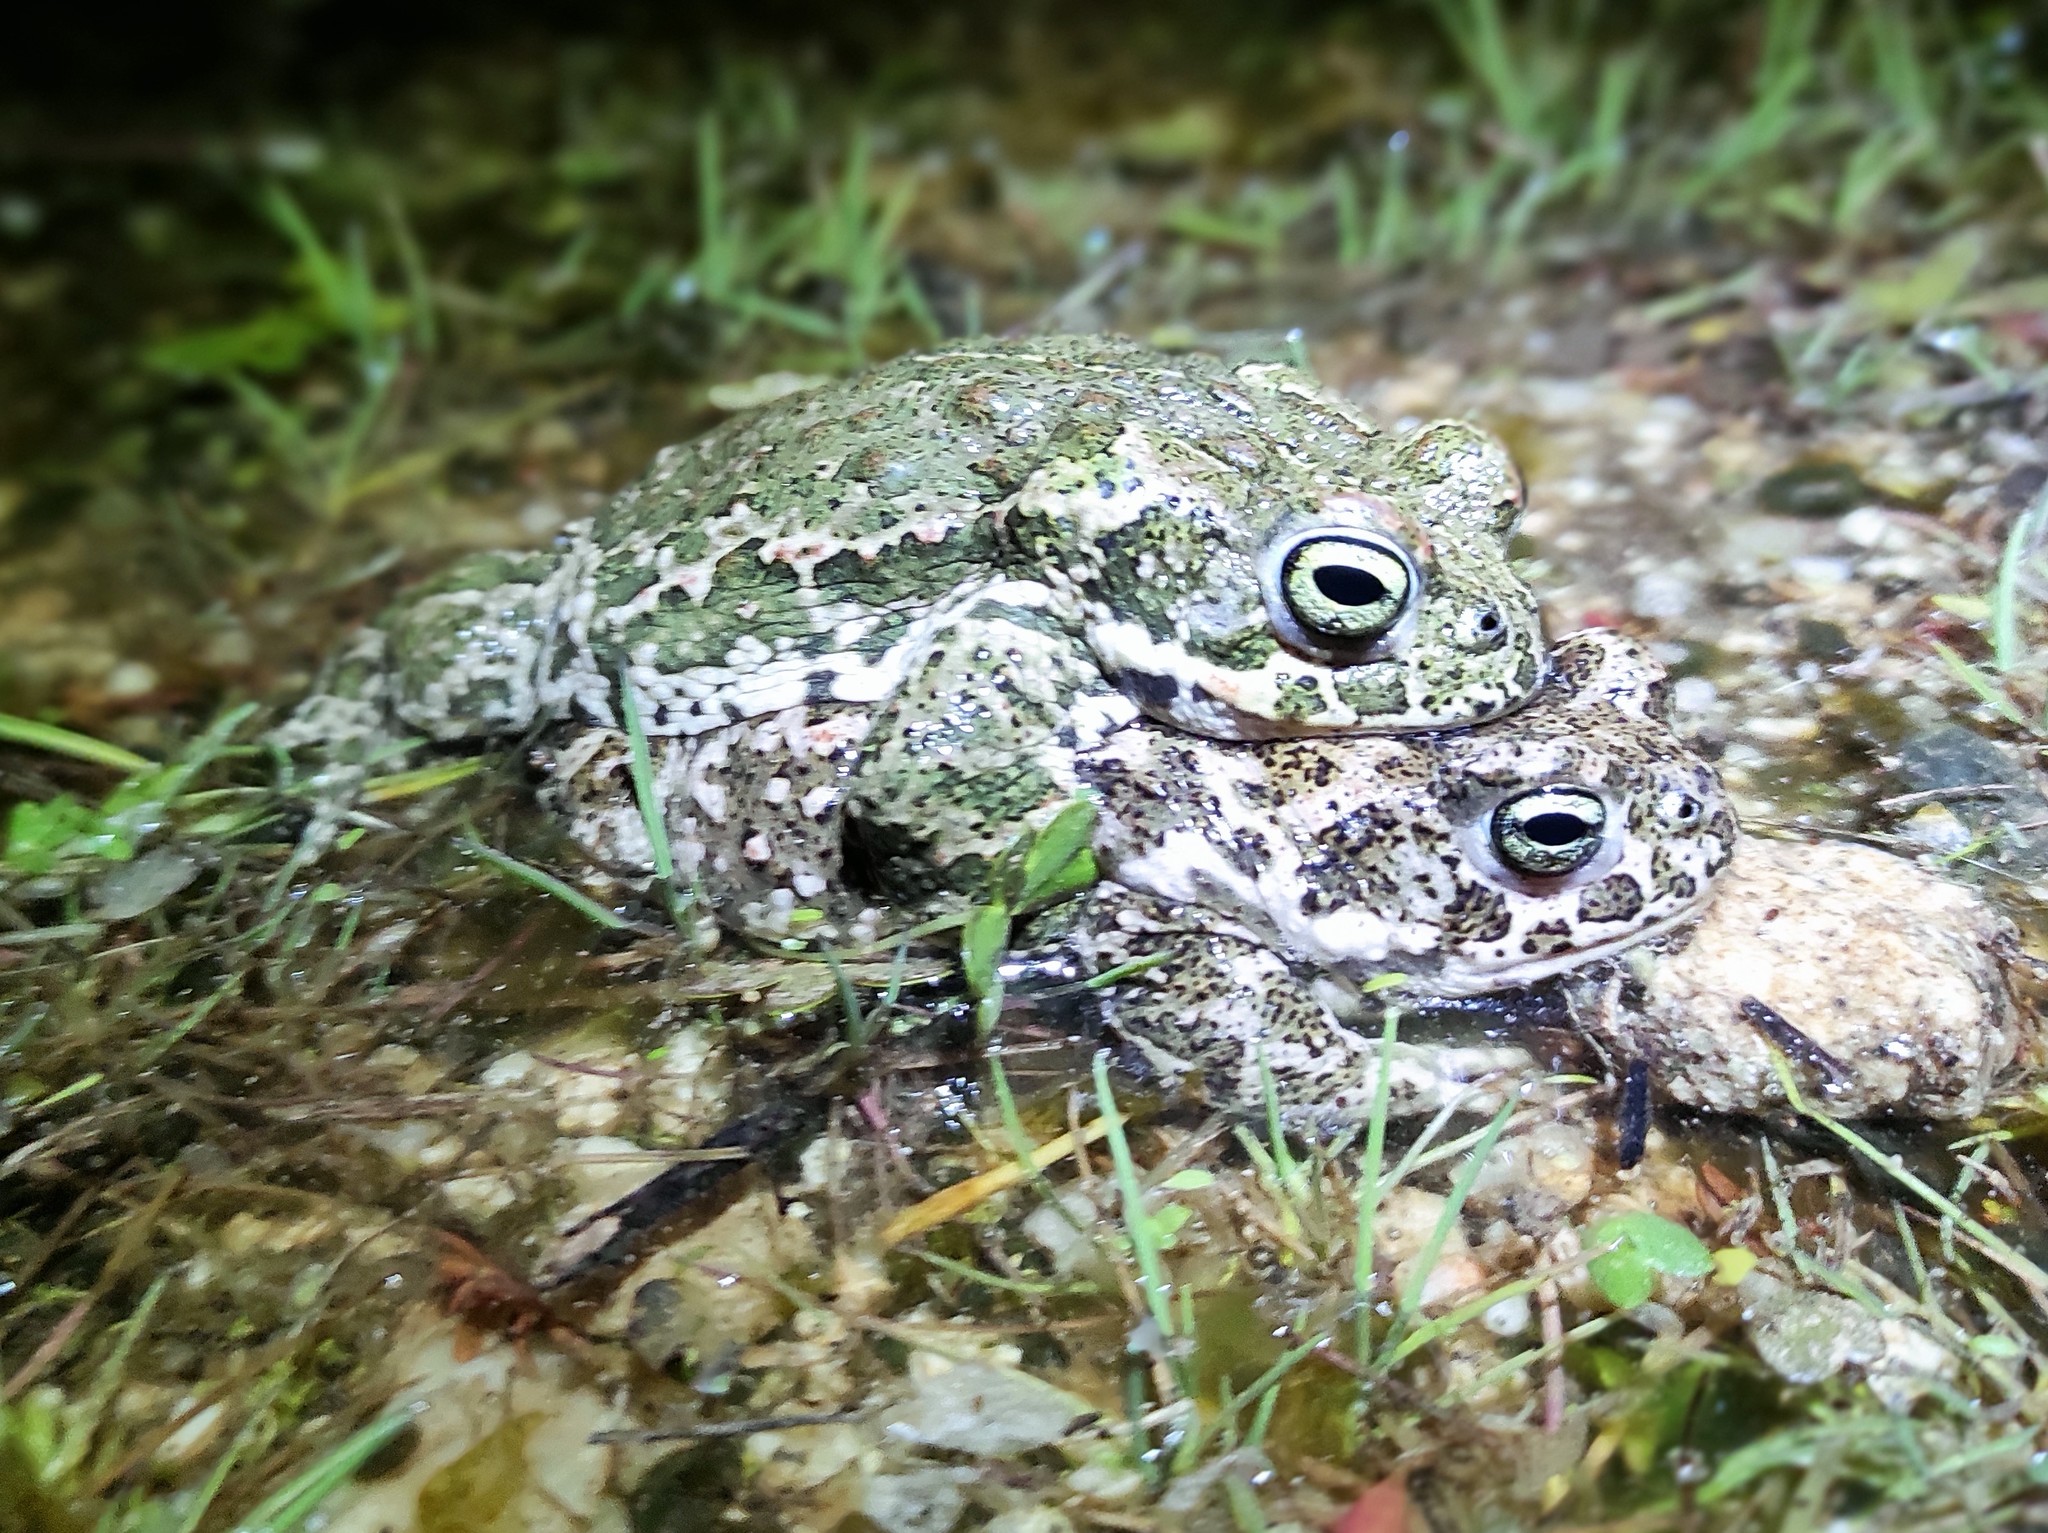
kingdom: Animalia
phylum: Chordata
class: Amphibia
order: Anura
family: Bufonidae
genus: Epidalea
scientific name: Epidalea calamita
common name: Natterjack toad
